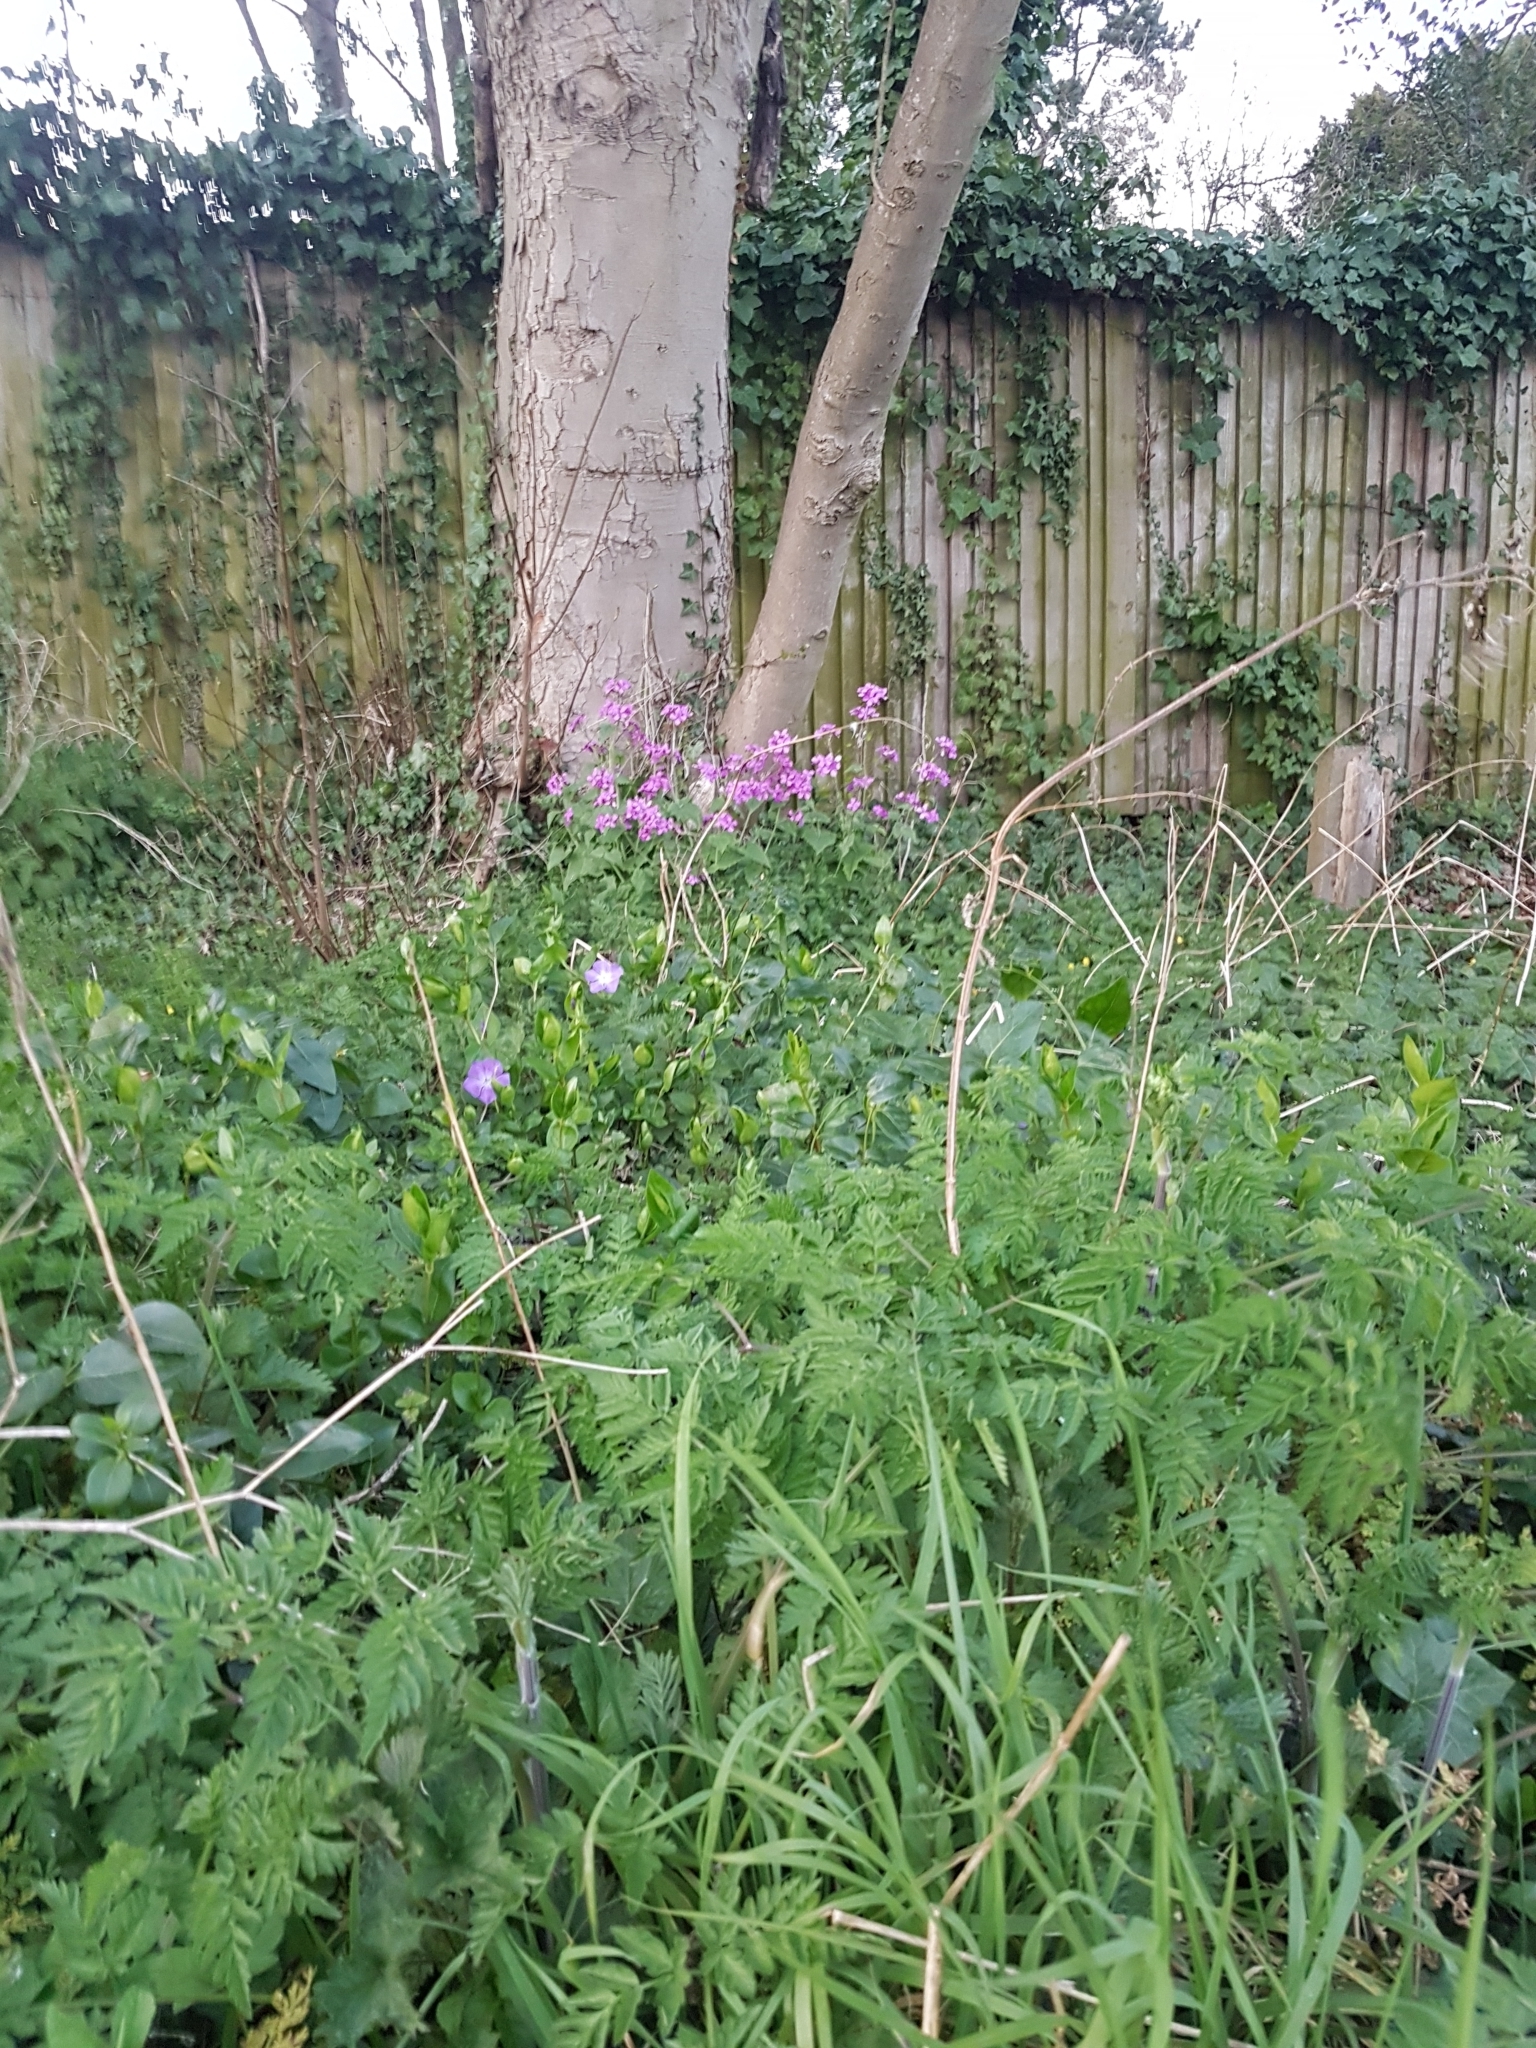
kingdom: Plantae
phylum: Tracheophyta
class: Magnoliopsida
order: Brassicales
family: Brassicaceae
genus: Lunaria
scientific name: Lunaria annua
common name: Honesty
